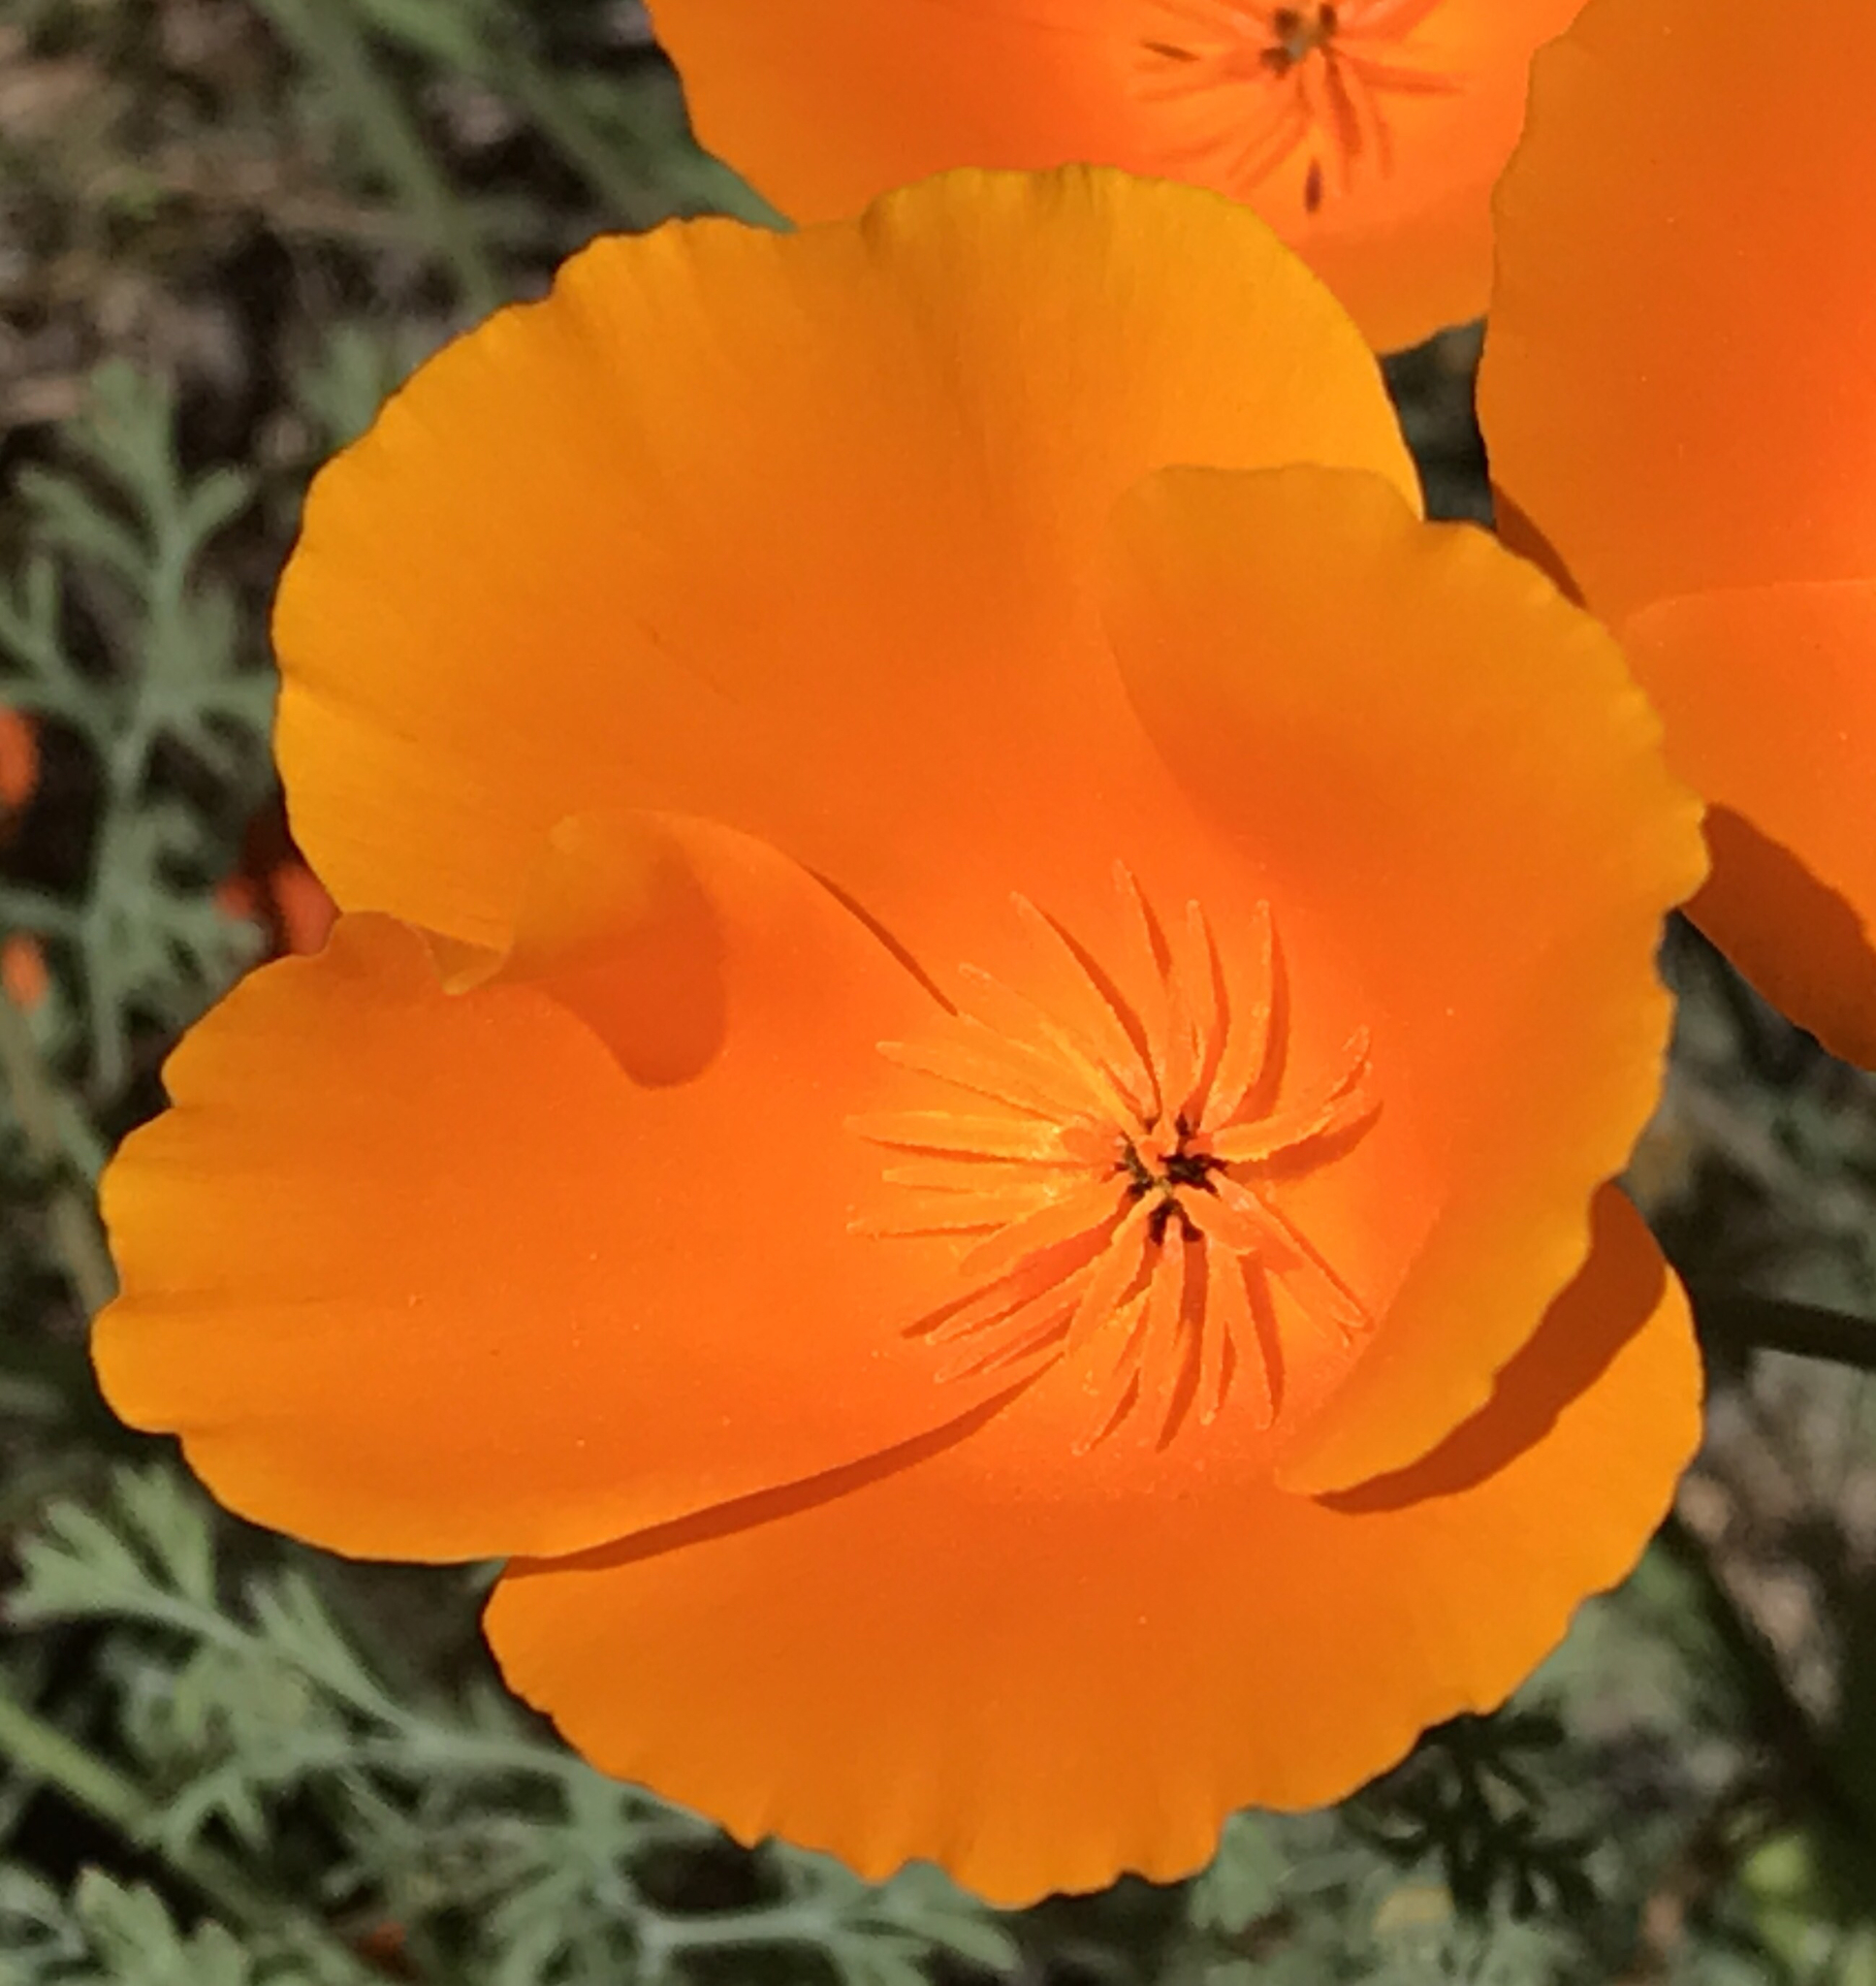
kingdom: Plantae
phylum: Tracheophyta
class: Magnoliopsida
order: Ranunculales
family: Papaveraceae
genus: Eschscholzia
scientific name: Eschscholzia californica
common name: California poppy
